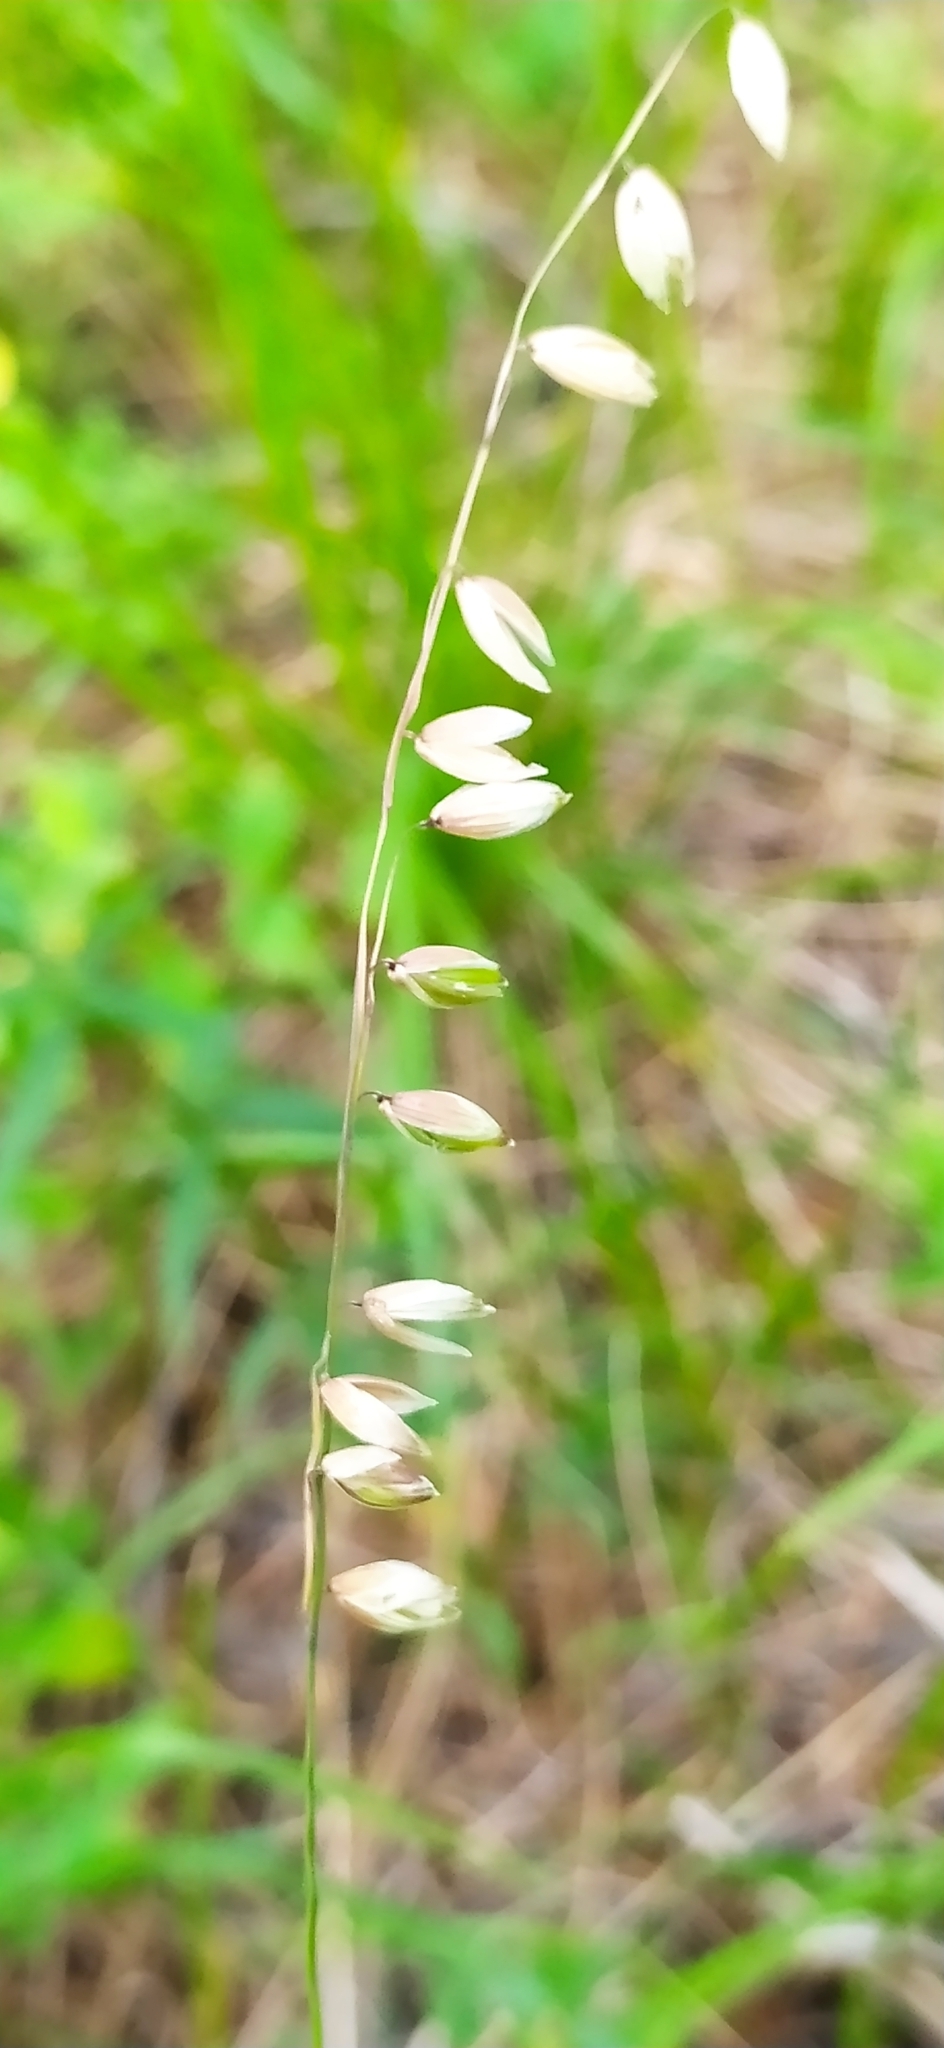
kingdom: Plantae
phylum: Tracheophyta
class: Liliopsida
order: Poales
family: Poaceae
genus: Melica
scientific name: Melica nutans
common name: Mountain melick
